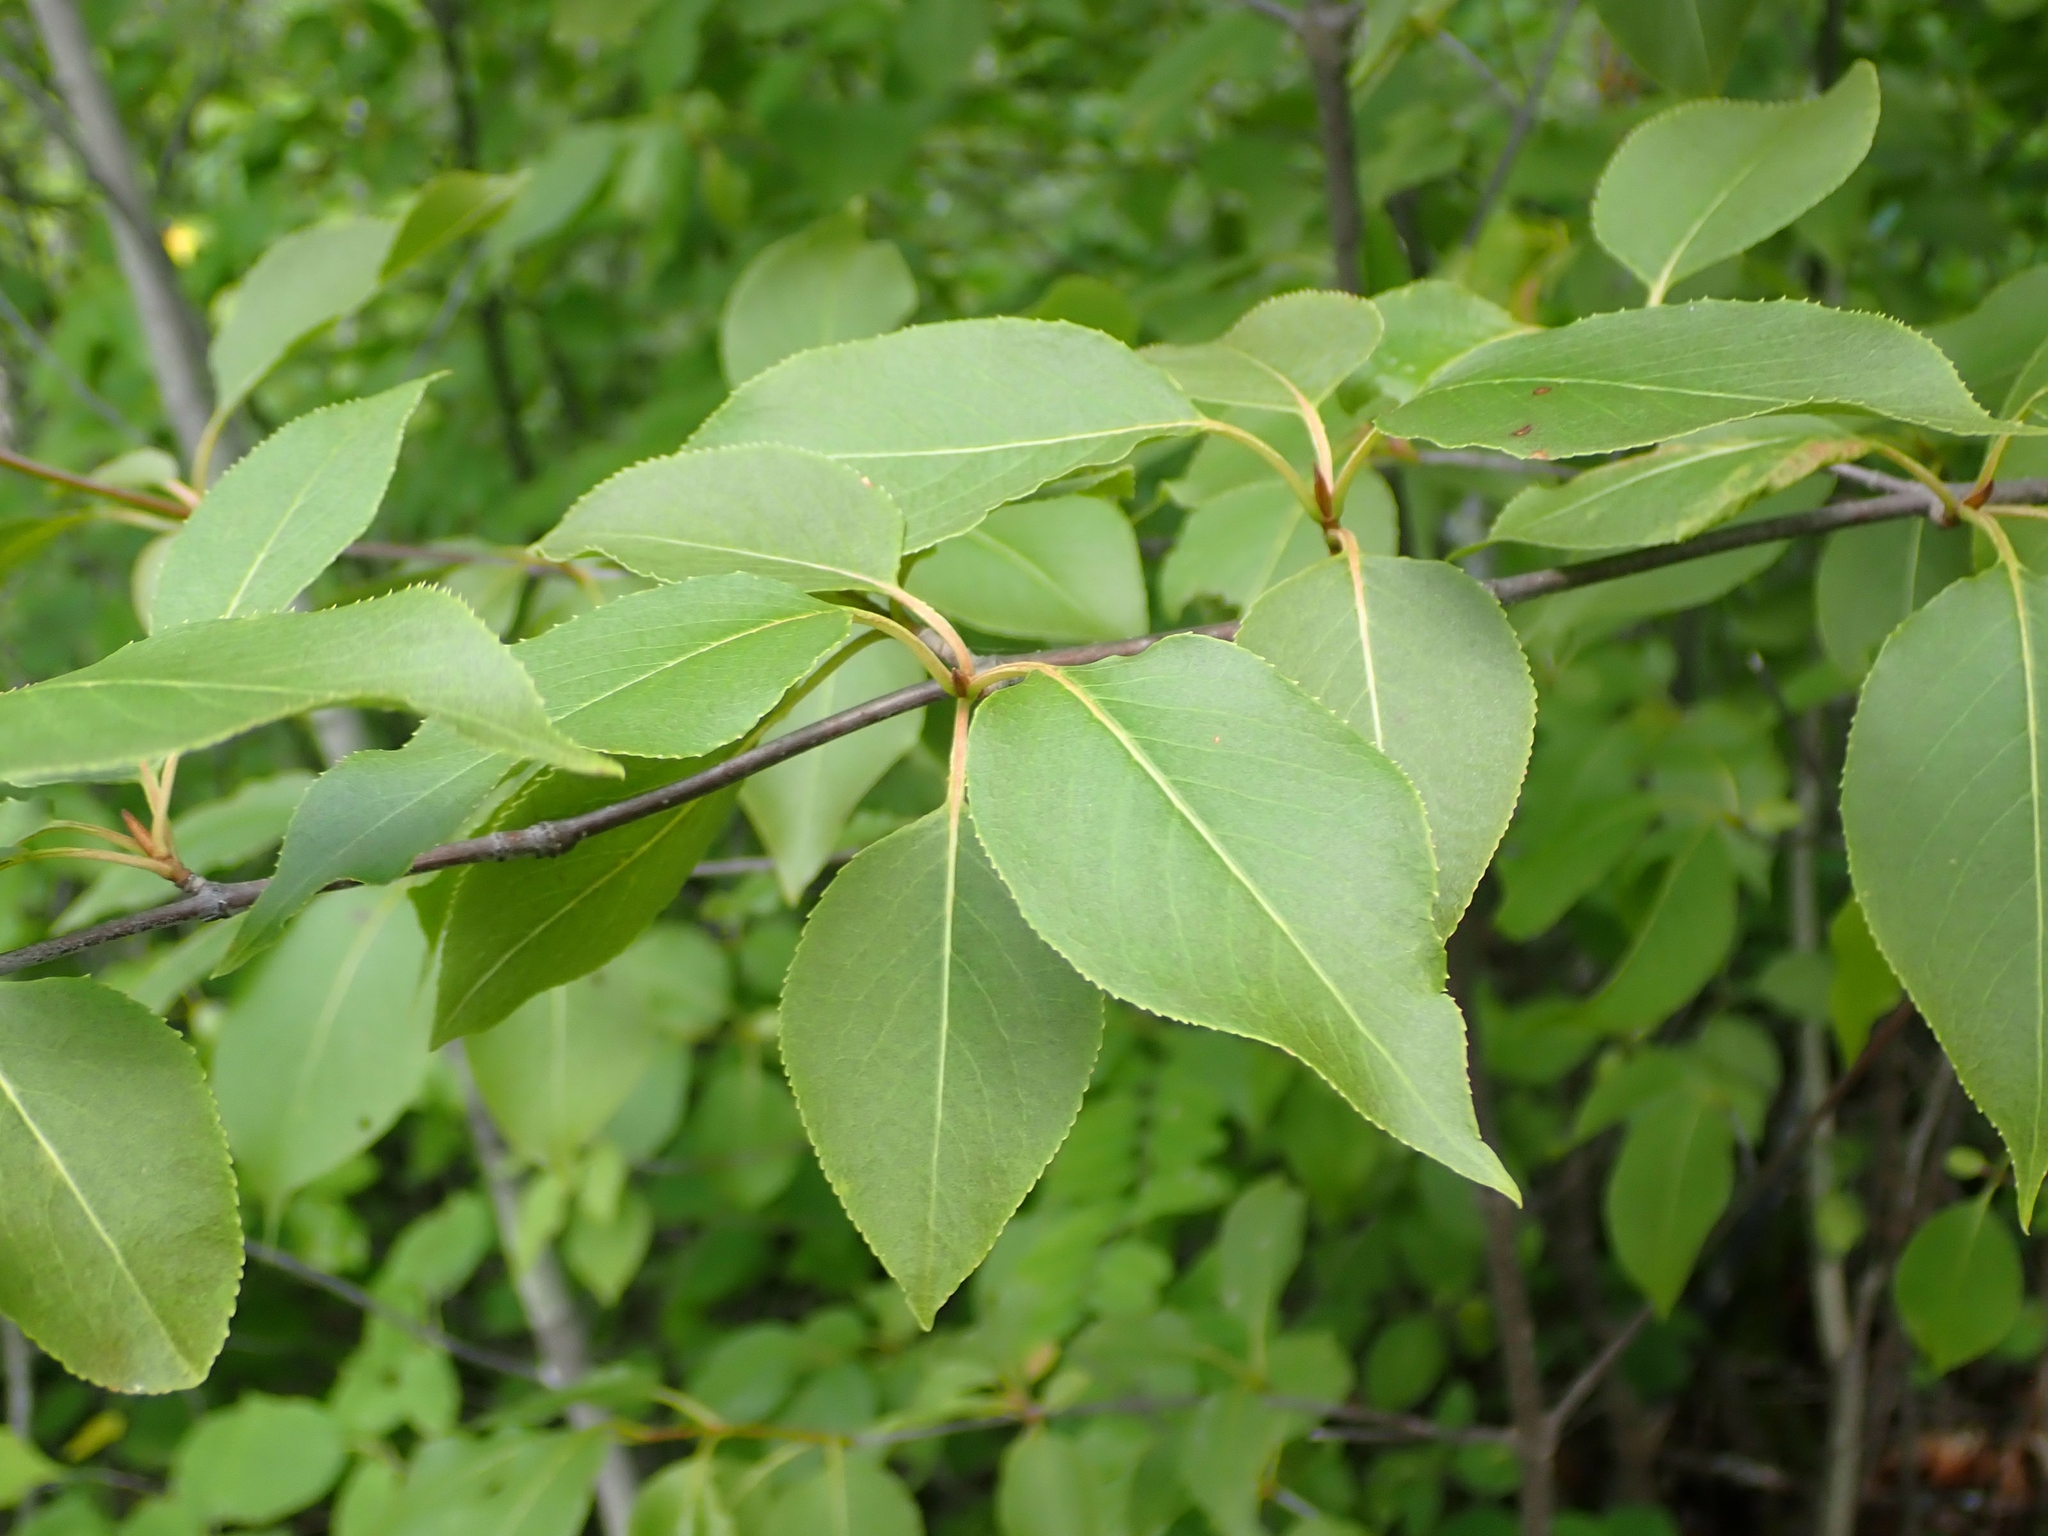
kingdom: Plantae
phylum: Tracheophyta
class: Magnoliopsida
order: Dipsacales
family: Viburnaceae
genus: Viburnum
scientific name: Viburnum lentago
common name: Black haw
